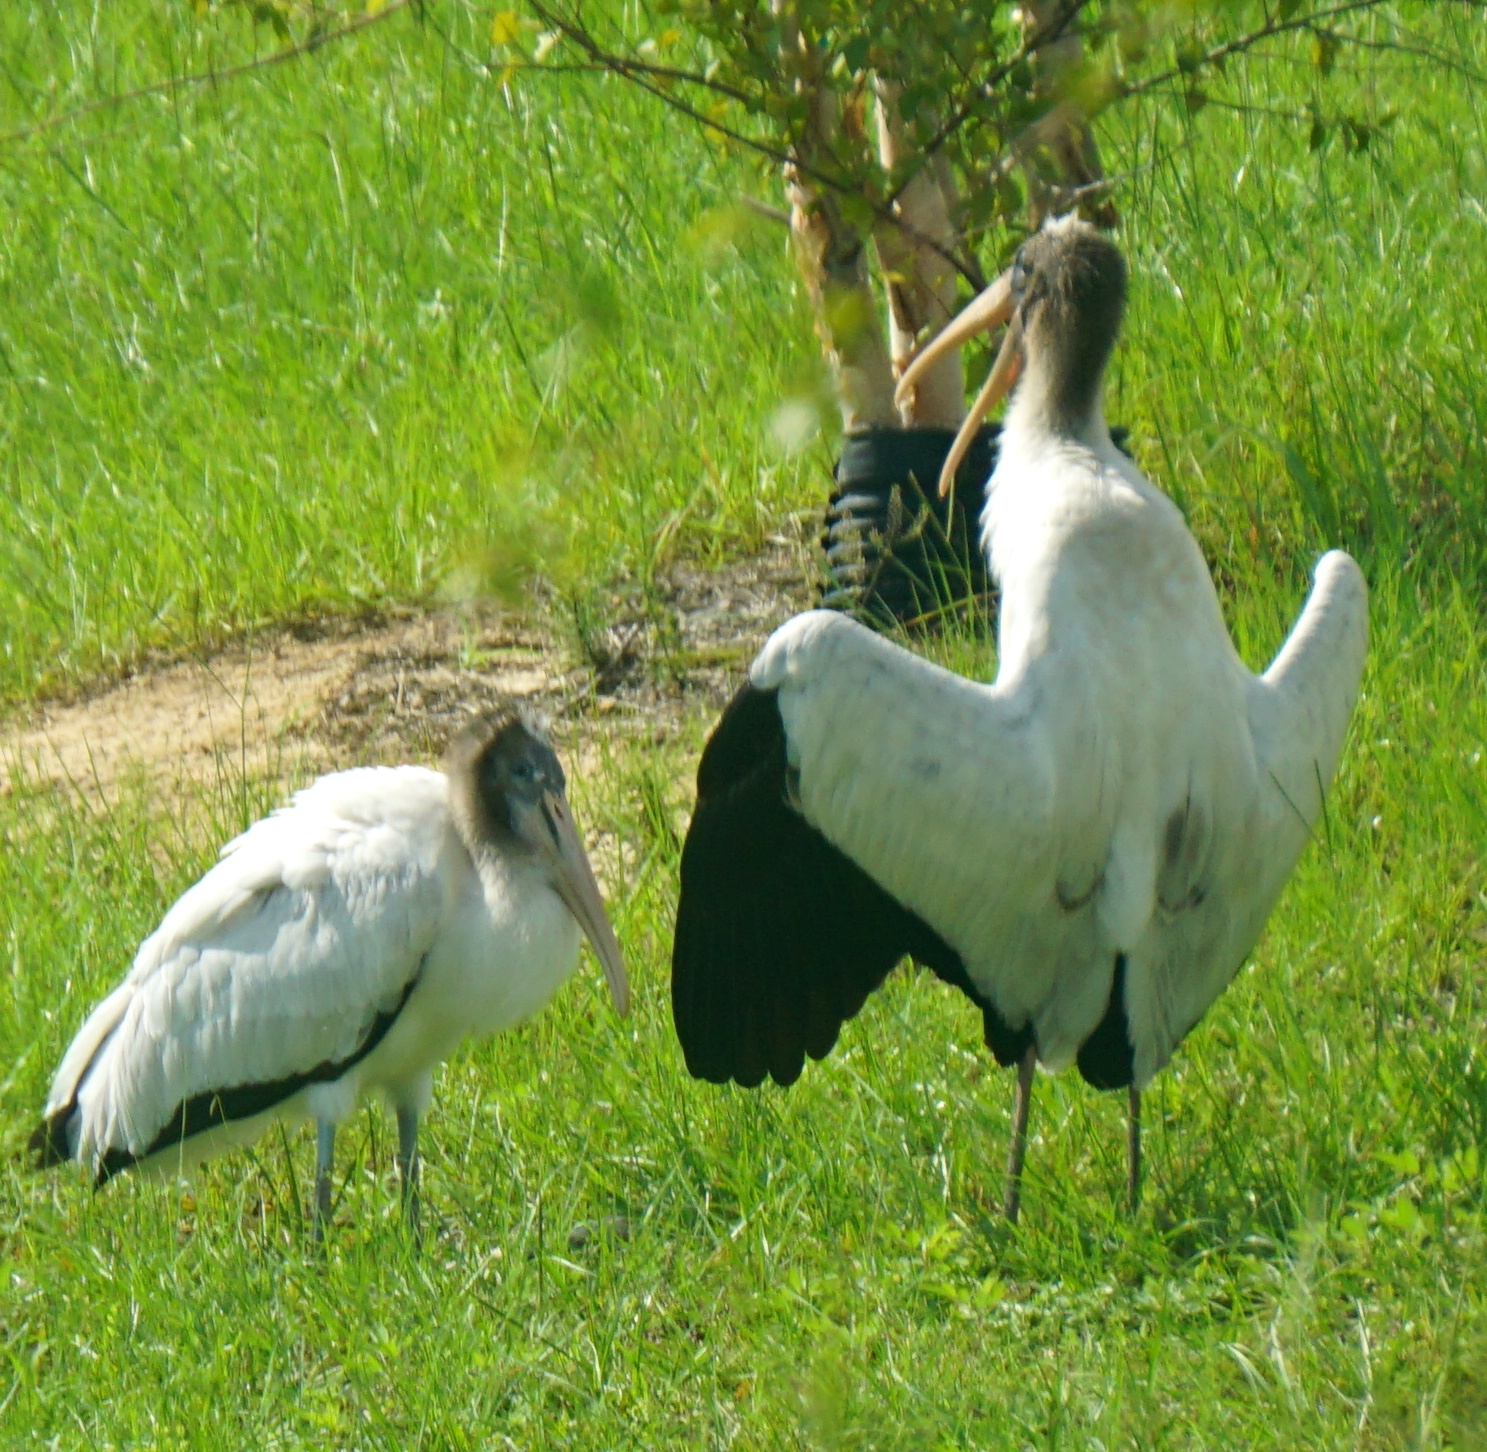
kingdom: Animalia
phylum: Chordata
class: Aves
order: Ciconiiformes
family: Ciconiidae
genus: Mycteria
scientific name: Mycteria americana
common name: Wood stork
